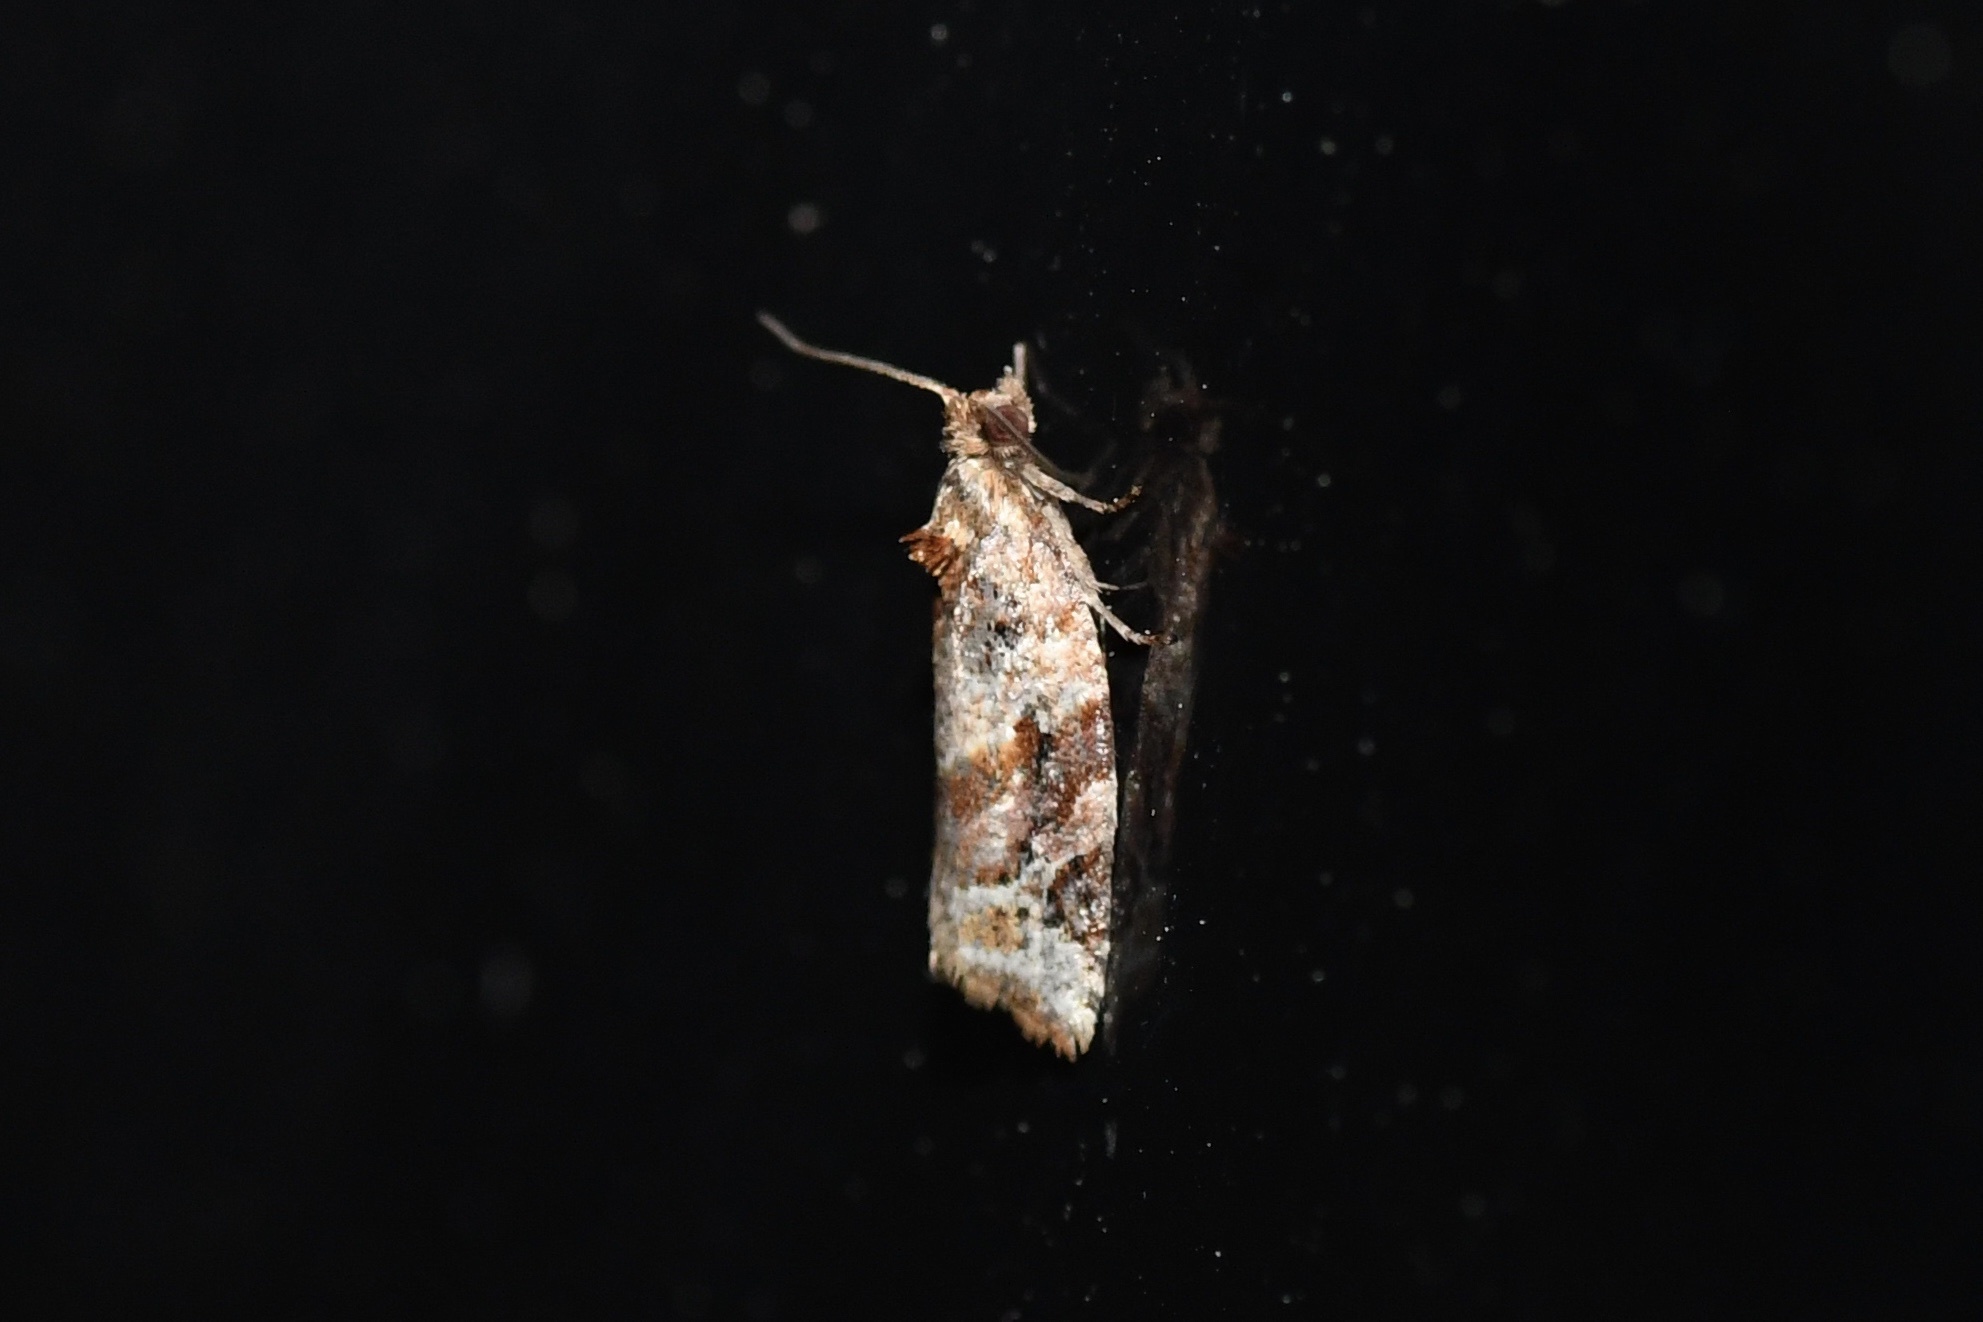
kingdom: Animalia
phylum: Arthropoda
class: Insecta
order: Lepidoptera
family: Tortricidae
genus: Argyrotaenia
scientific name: Argyrotaenia velutinana
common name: Red-banded leafroller moth
